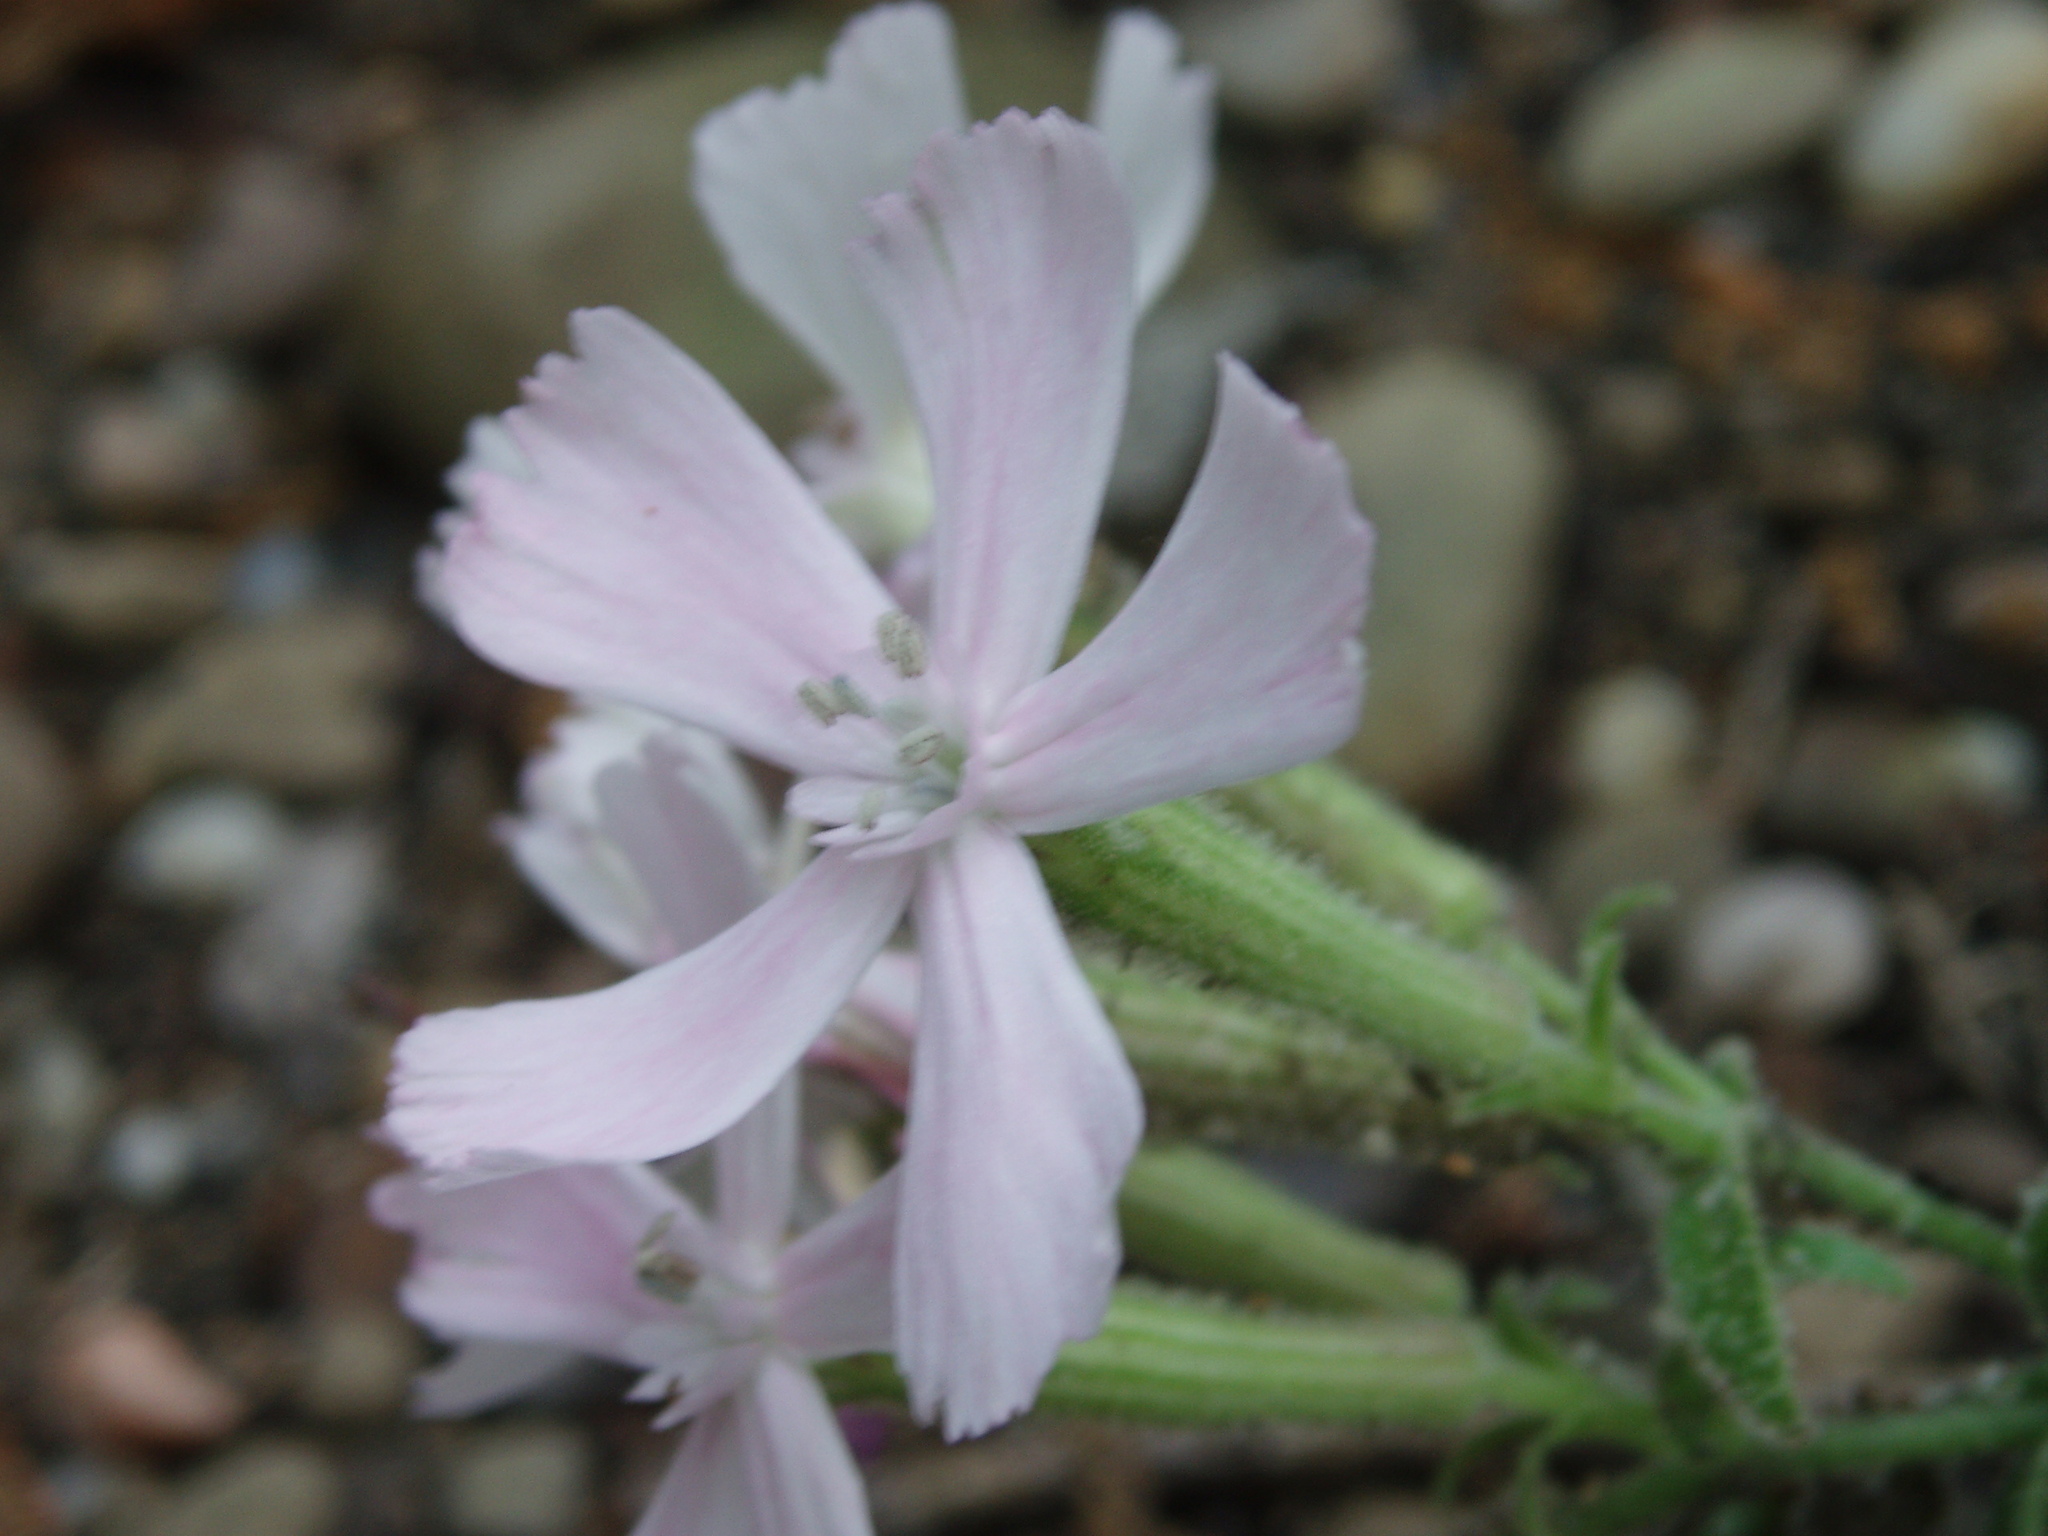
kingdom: Plantae
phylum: Tracheophyta
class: Magnoliopsida
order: Caryophyllales
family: Caryophyllaceae
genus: Silene
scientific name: Silene caroliniana
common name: Sticky catchfly
